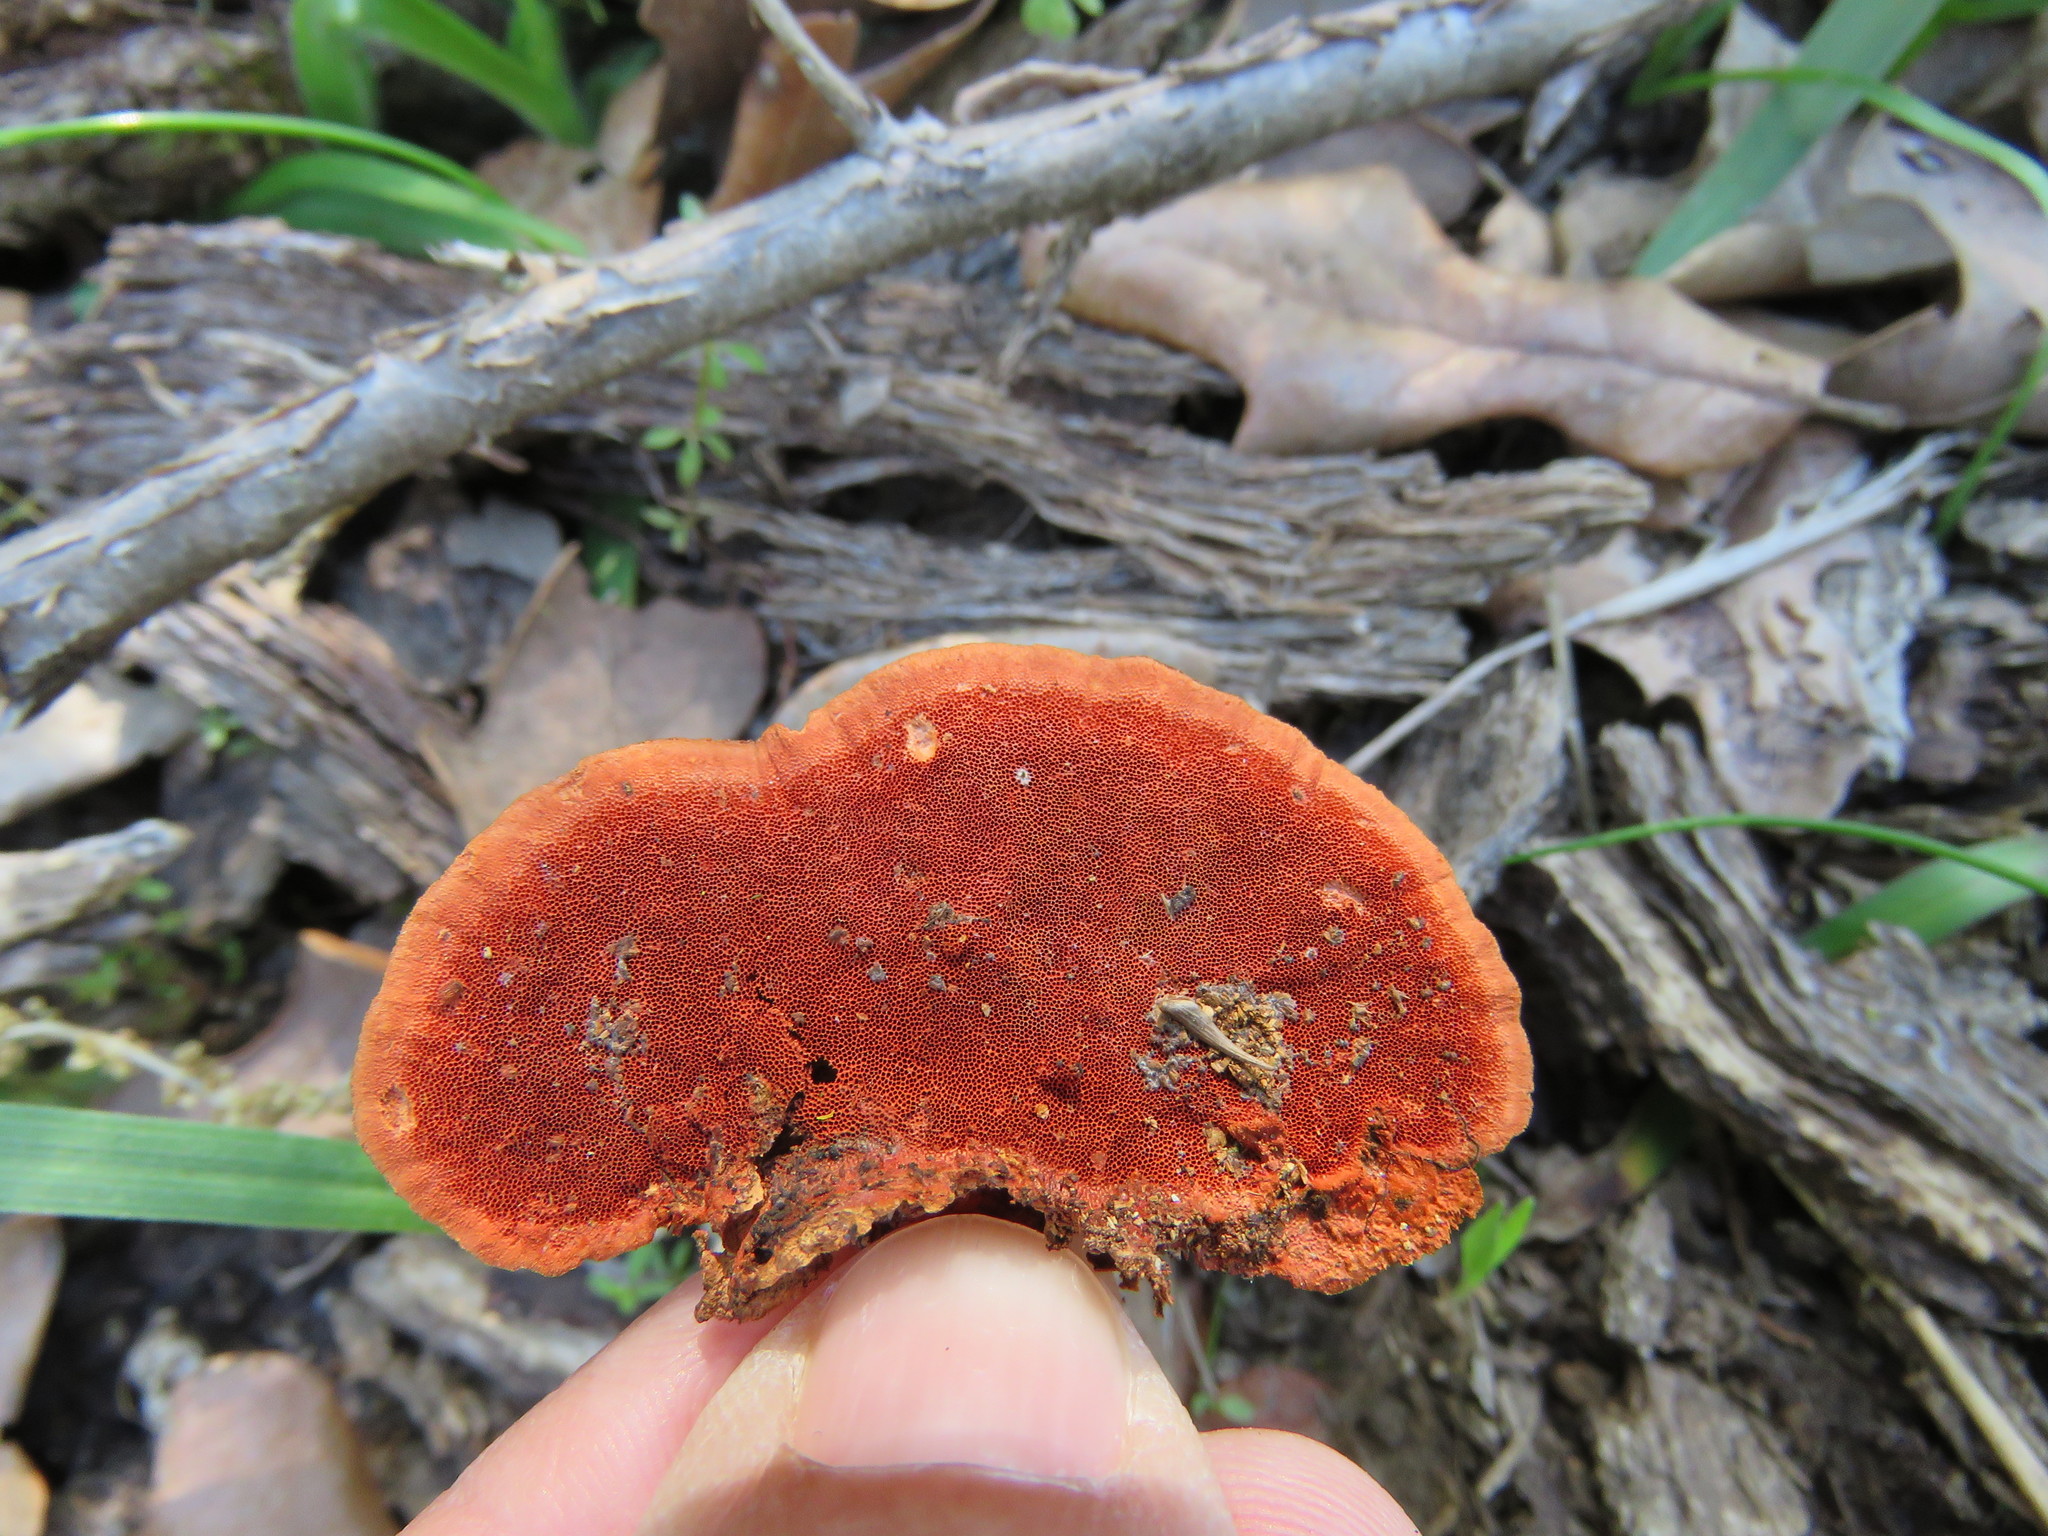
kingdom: Fungi
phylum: Basidiomycota
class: Agaricomycetes
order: Polyporales
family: Polyporaceae
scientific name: Polyporaceae
